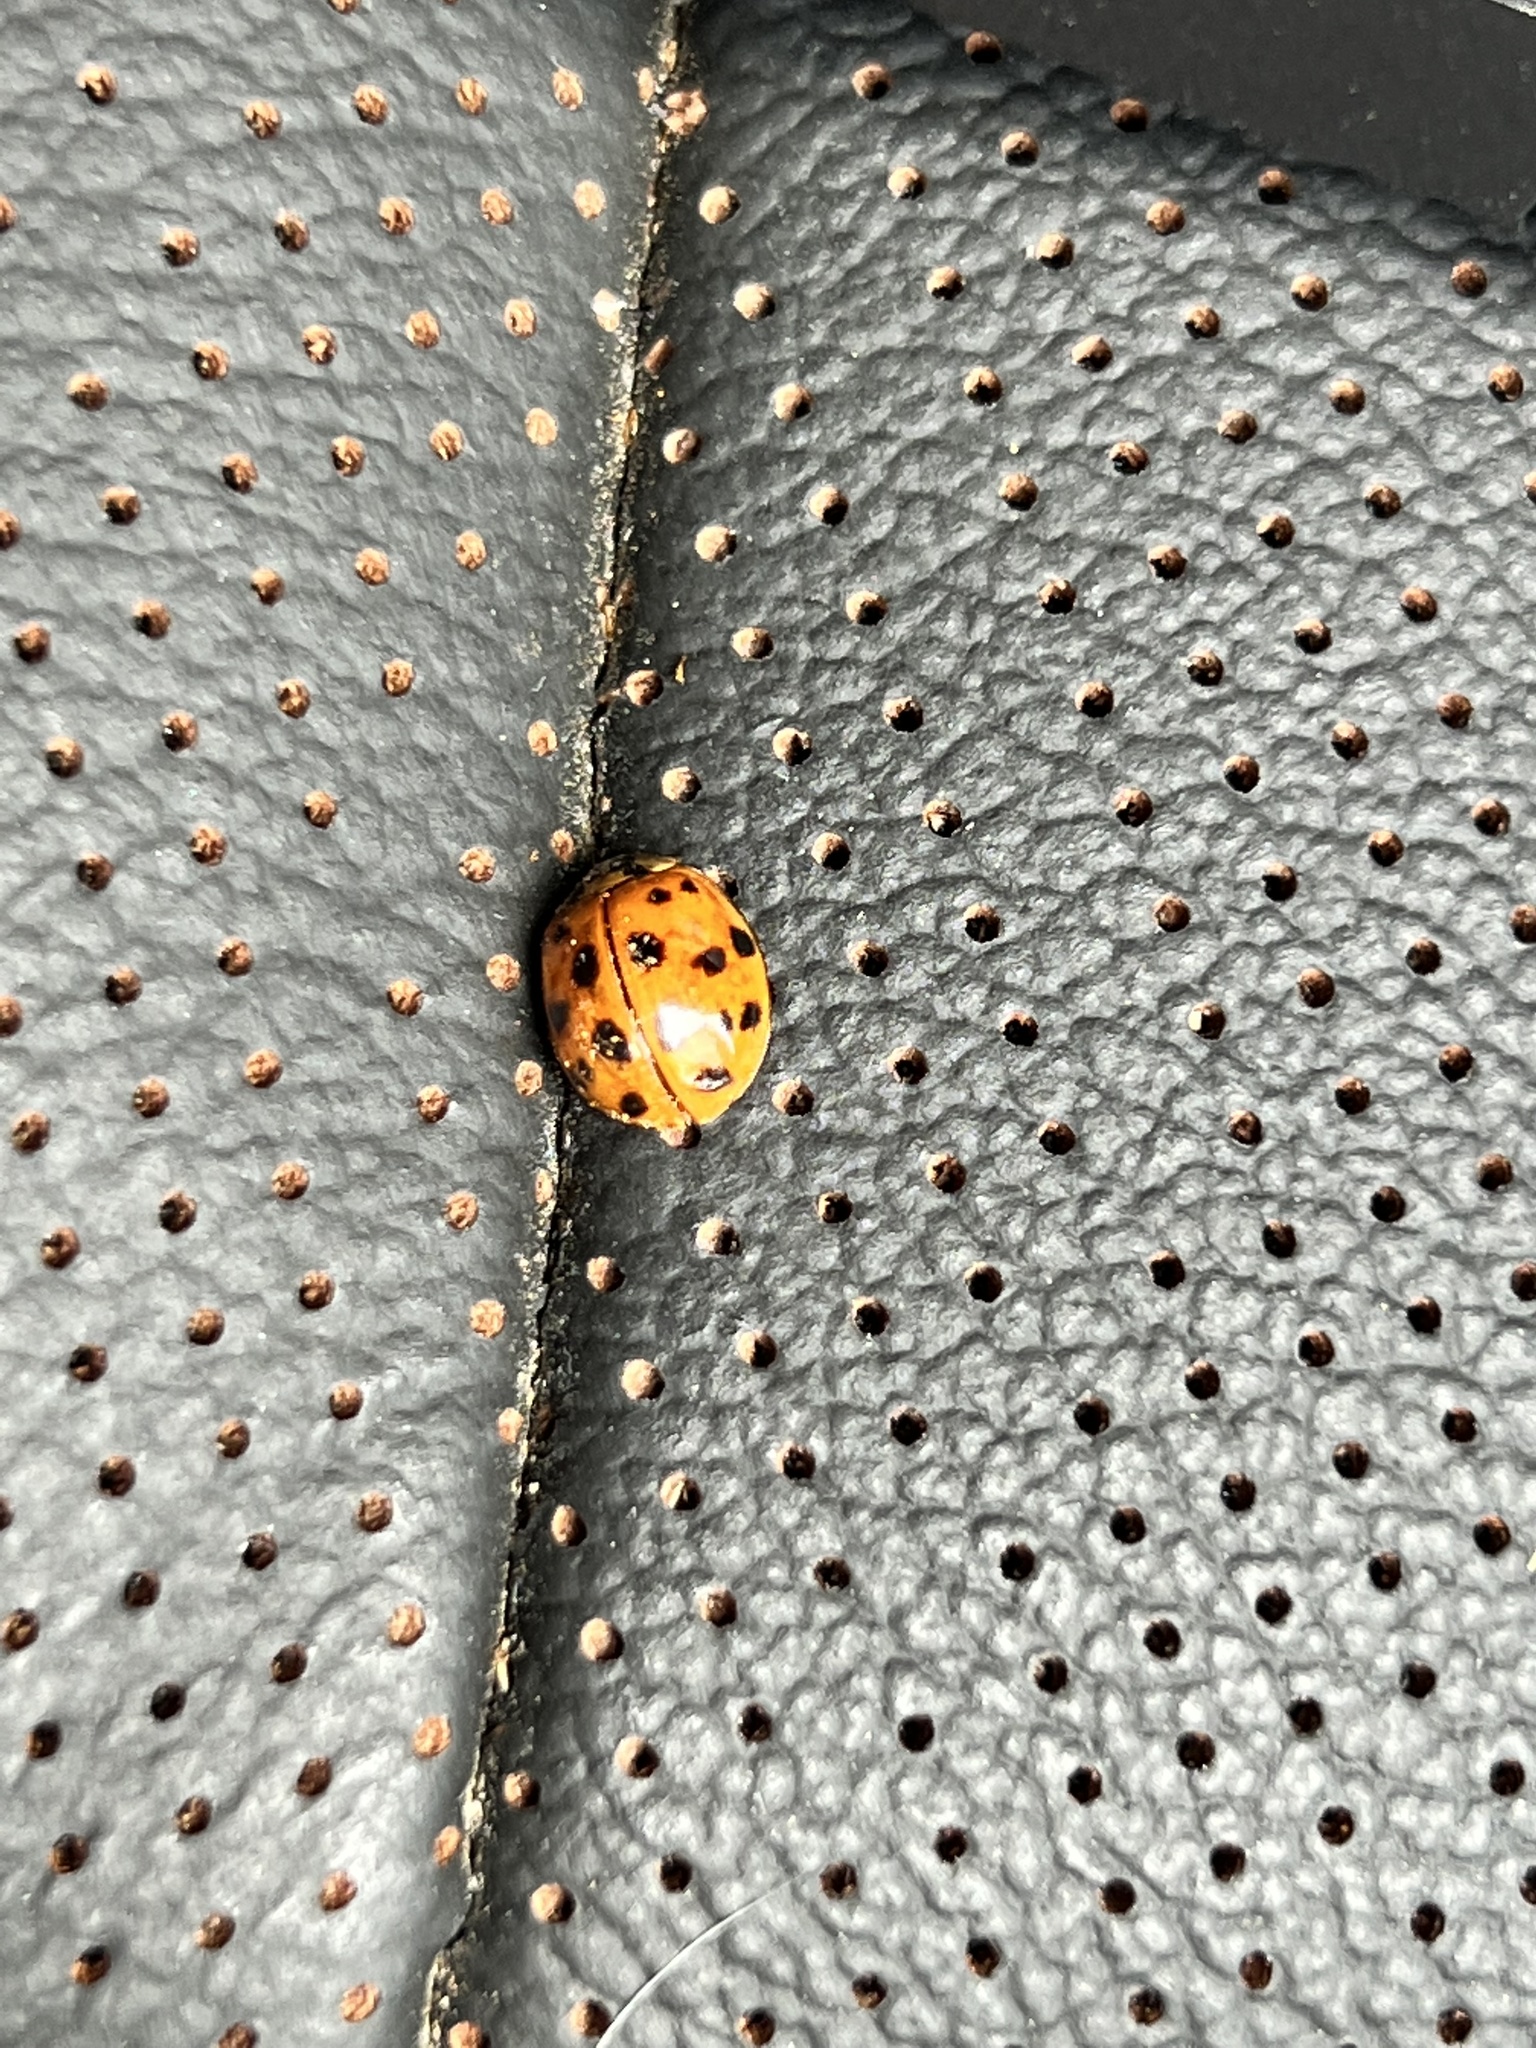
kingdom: Animalia
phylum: Arthropoda
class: Insecta
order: Coleoptera
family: Coccinellidae
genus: Harmonia
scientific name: Harmonia axyridis
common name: Harlequin ladybird
